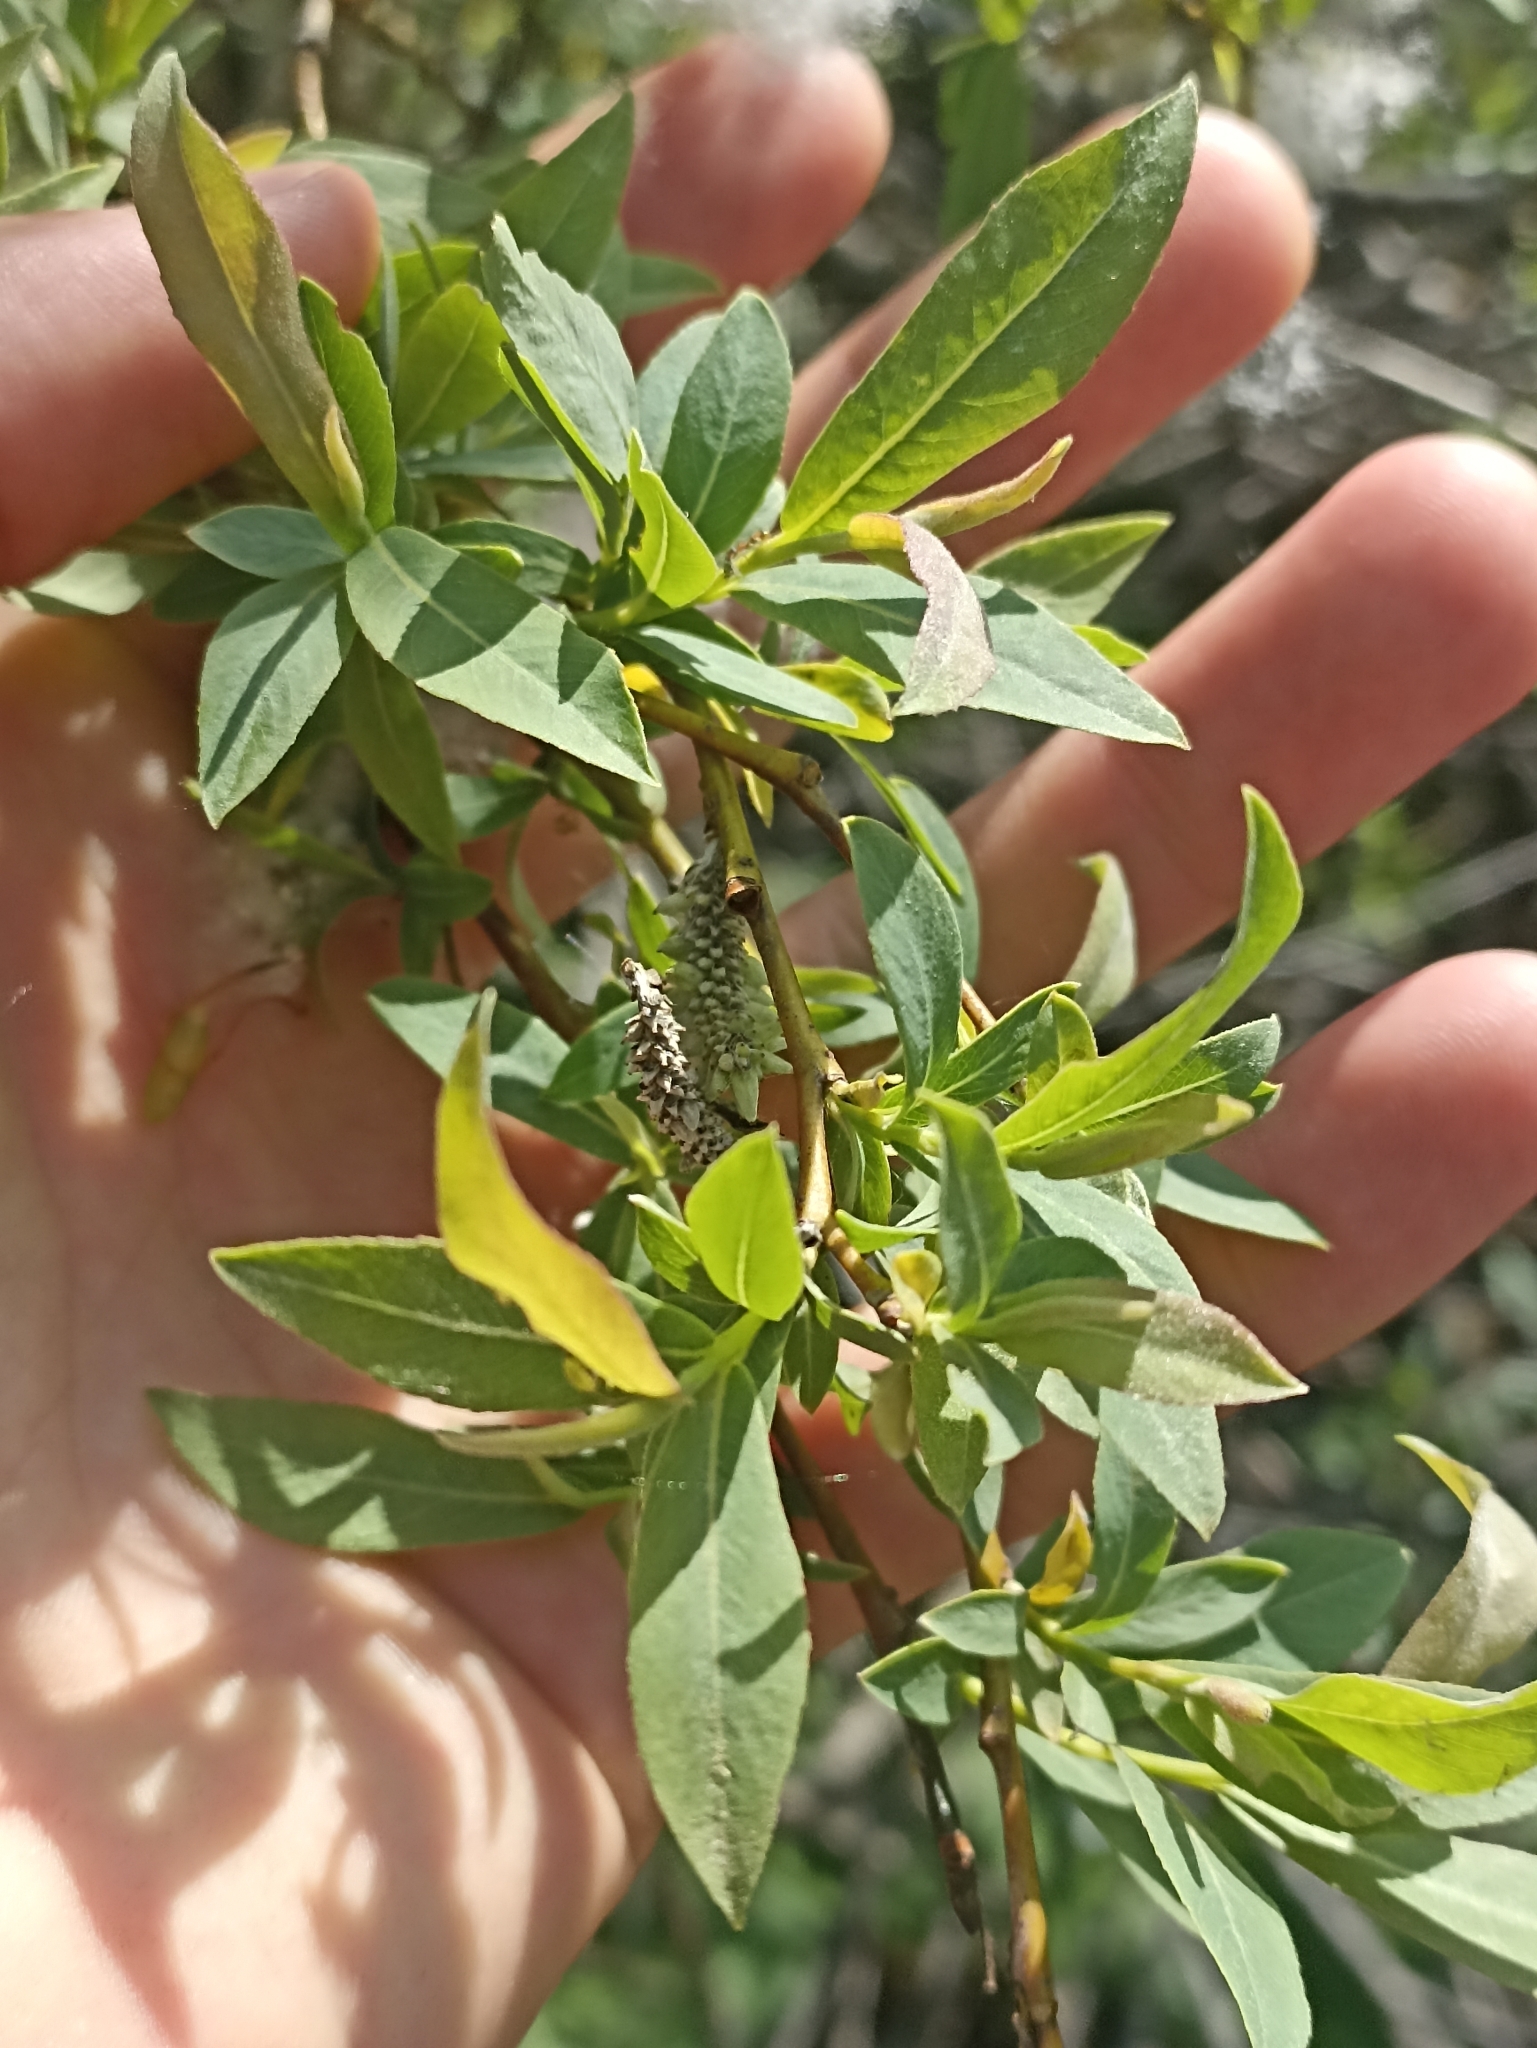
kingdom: Plantae
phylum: Tracheophyta
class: Magnoliopsida
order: Malpighiales
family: Salicaceae
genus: Salix
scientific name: Salix purpurea
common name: Purple willow
